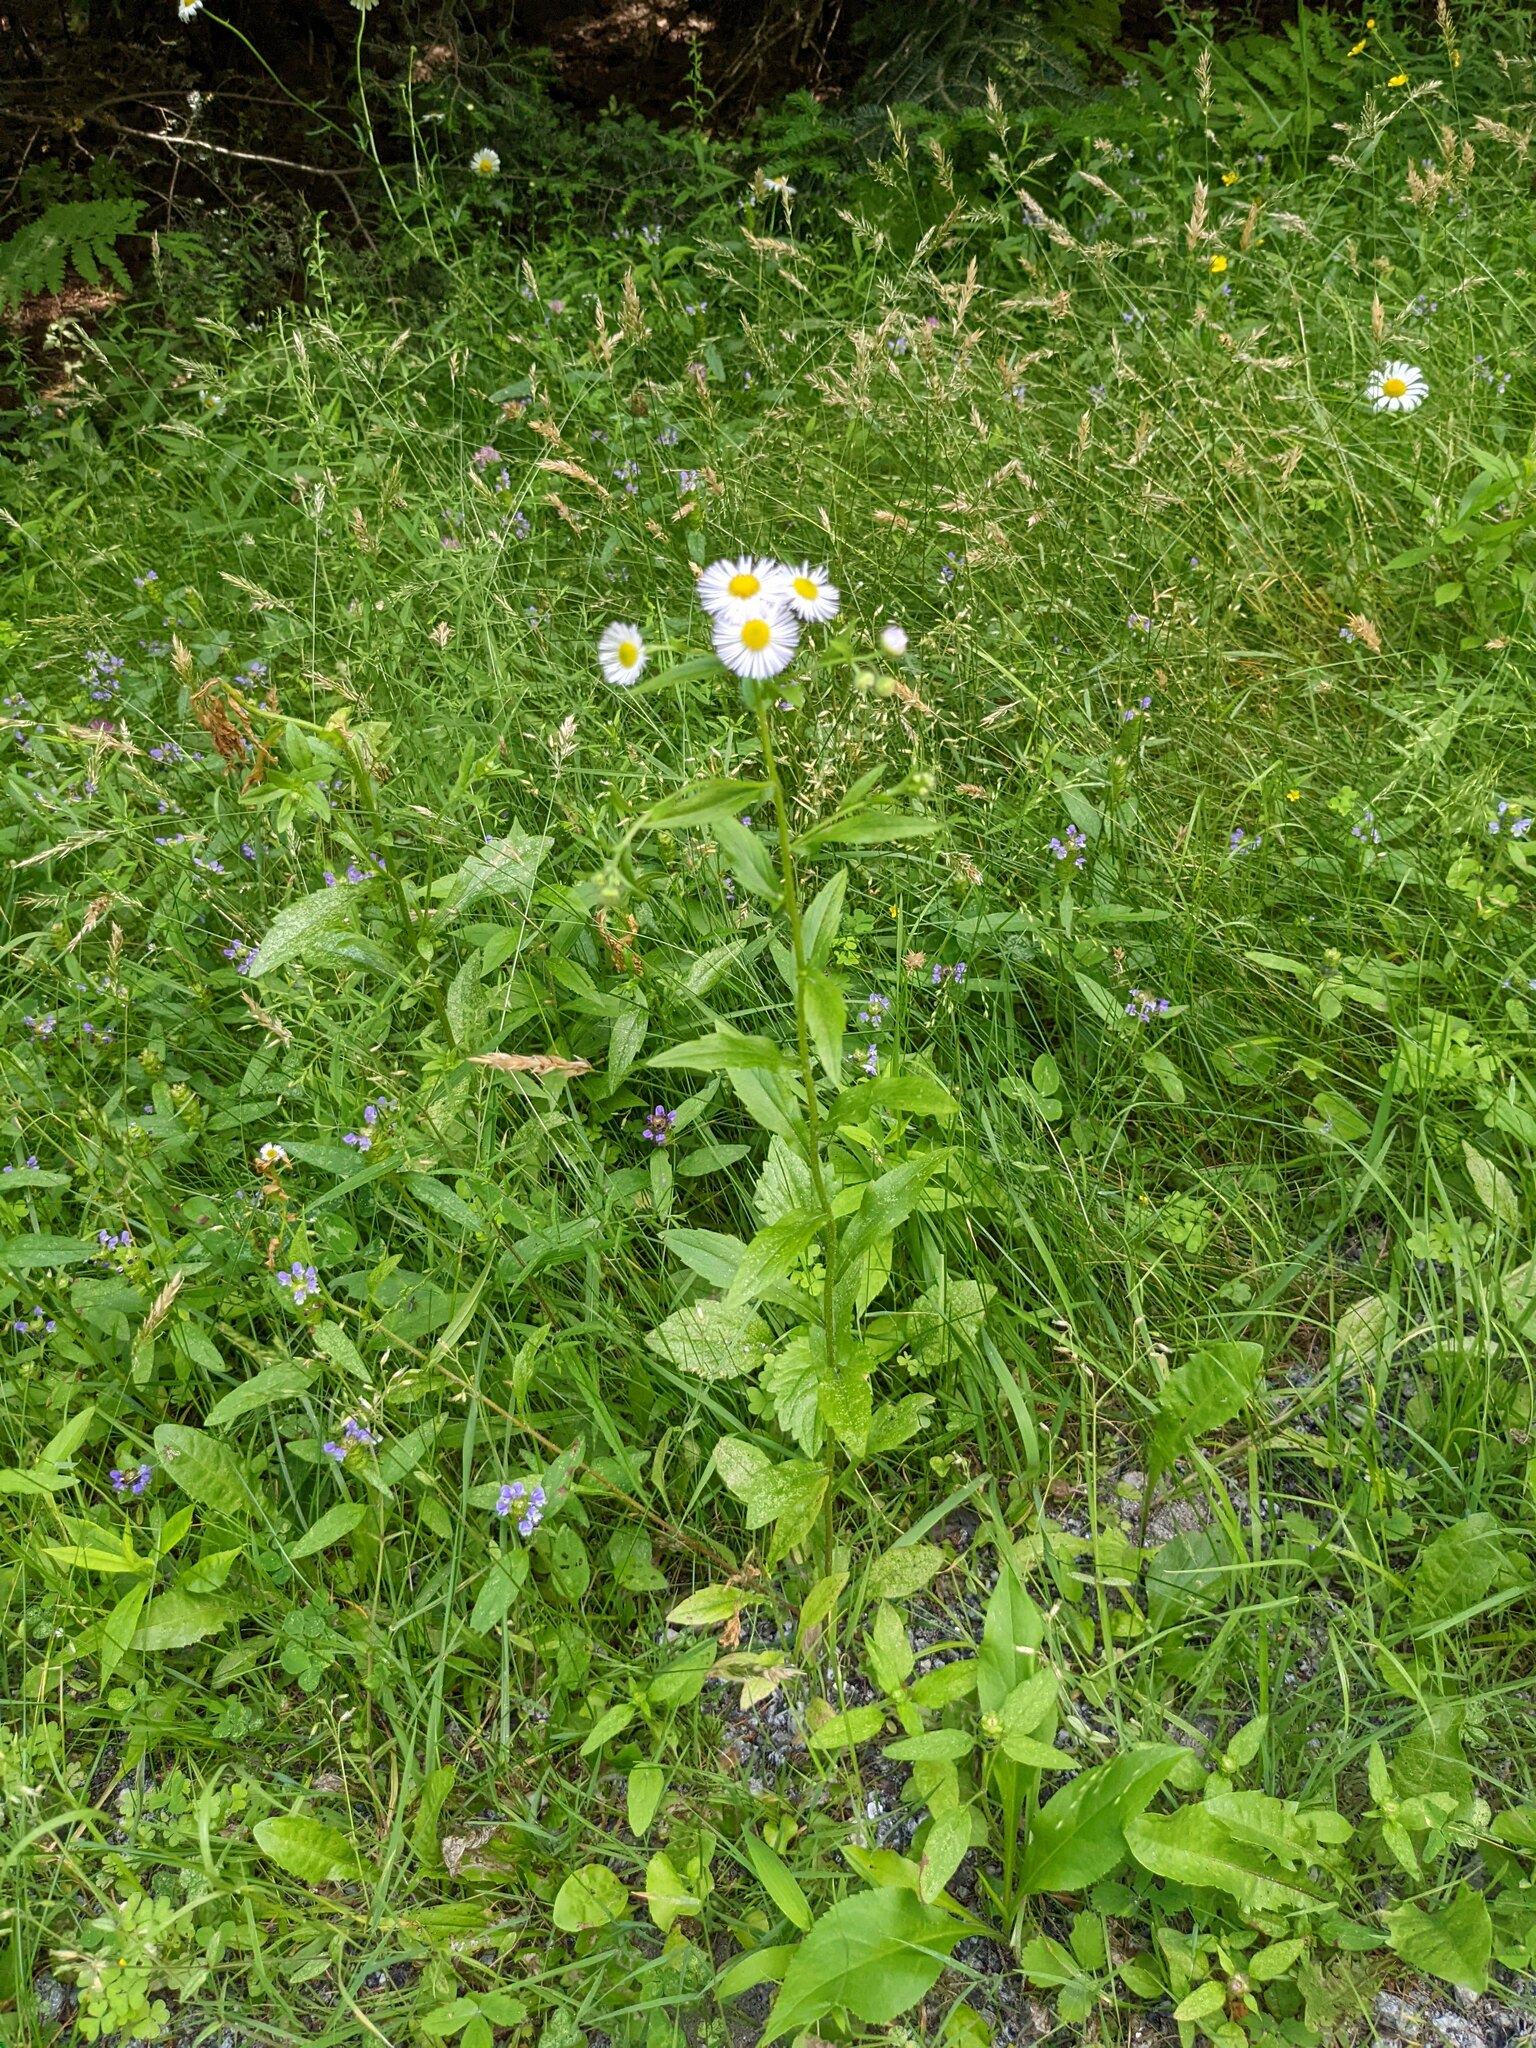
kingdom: Plantae
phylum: Tracheophyta
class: Magnoliopsida
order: Asterales
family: Asteraceae
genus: Erigeron
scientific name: Erigeron annuus
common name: Tall fleabane
